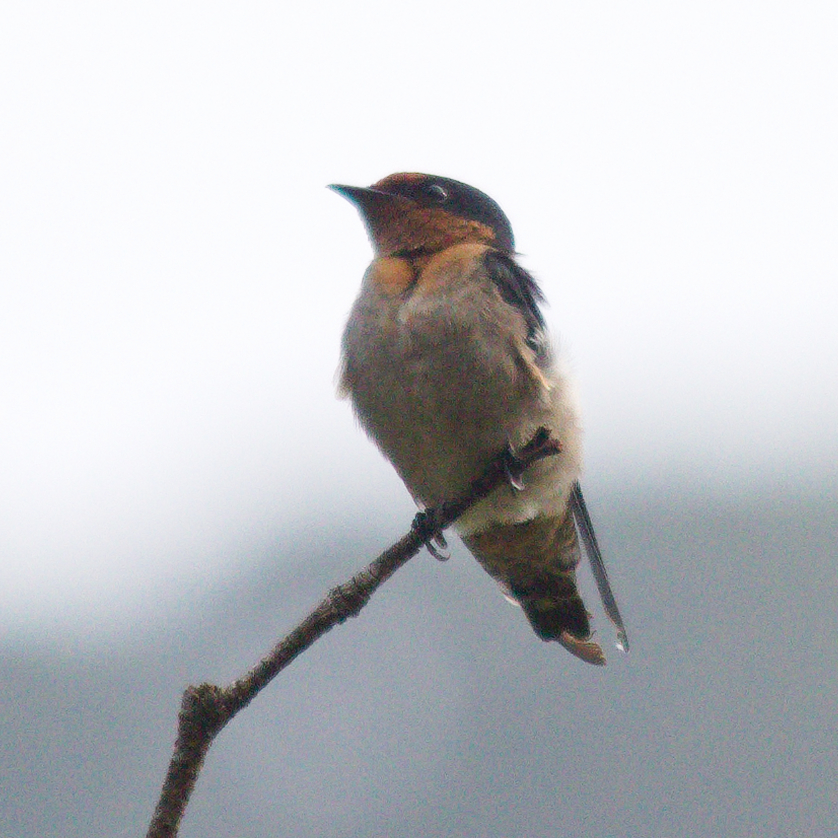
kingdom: Animalia
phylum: Chordata
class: Aves
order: Passeriformes
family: Hirundinidae
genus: Hirundo
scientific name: Hirundo tahitica
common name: Pacific swallow
